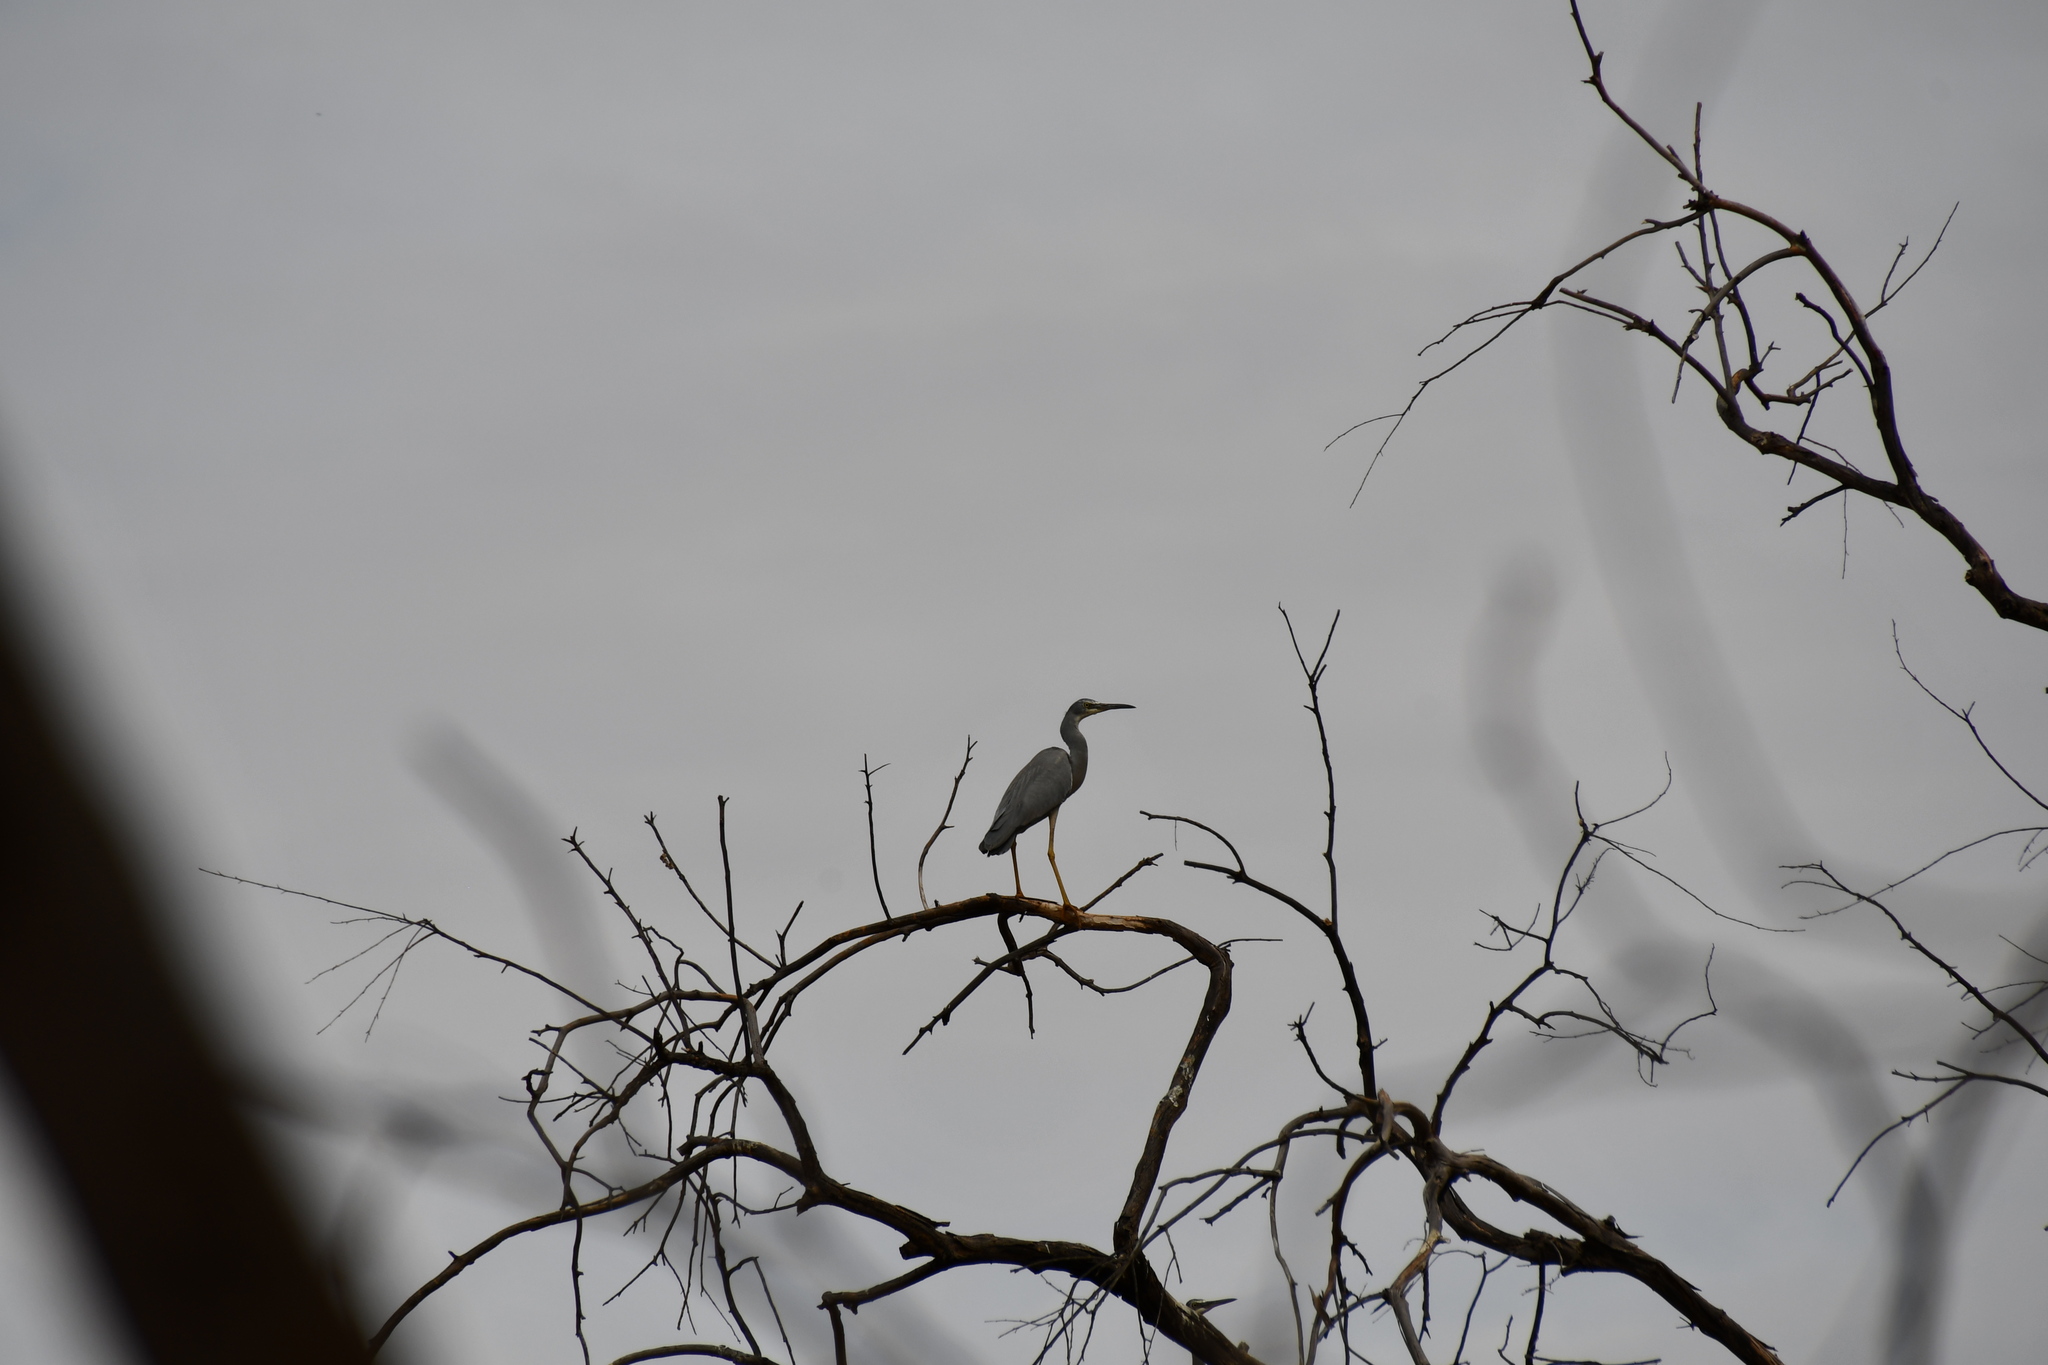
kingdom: Animalia
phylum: Chordata
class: Aves
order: Pelecaniformes
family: Ardeidae
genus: Egretta
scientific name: Egretta novaehollandiae
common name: White-faced heron
